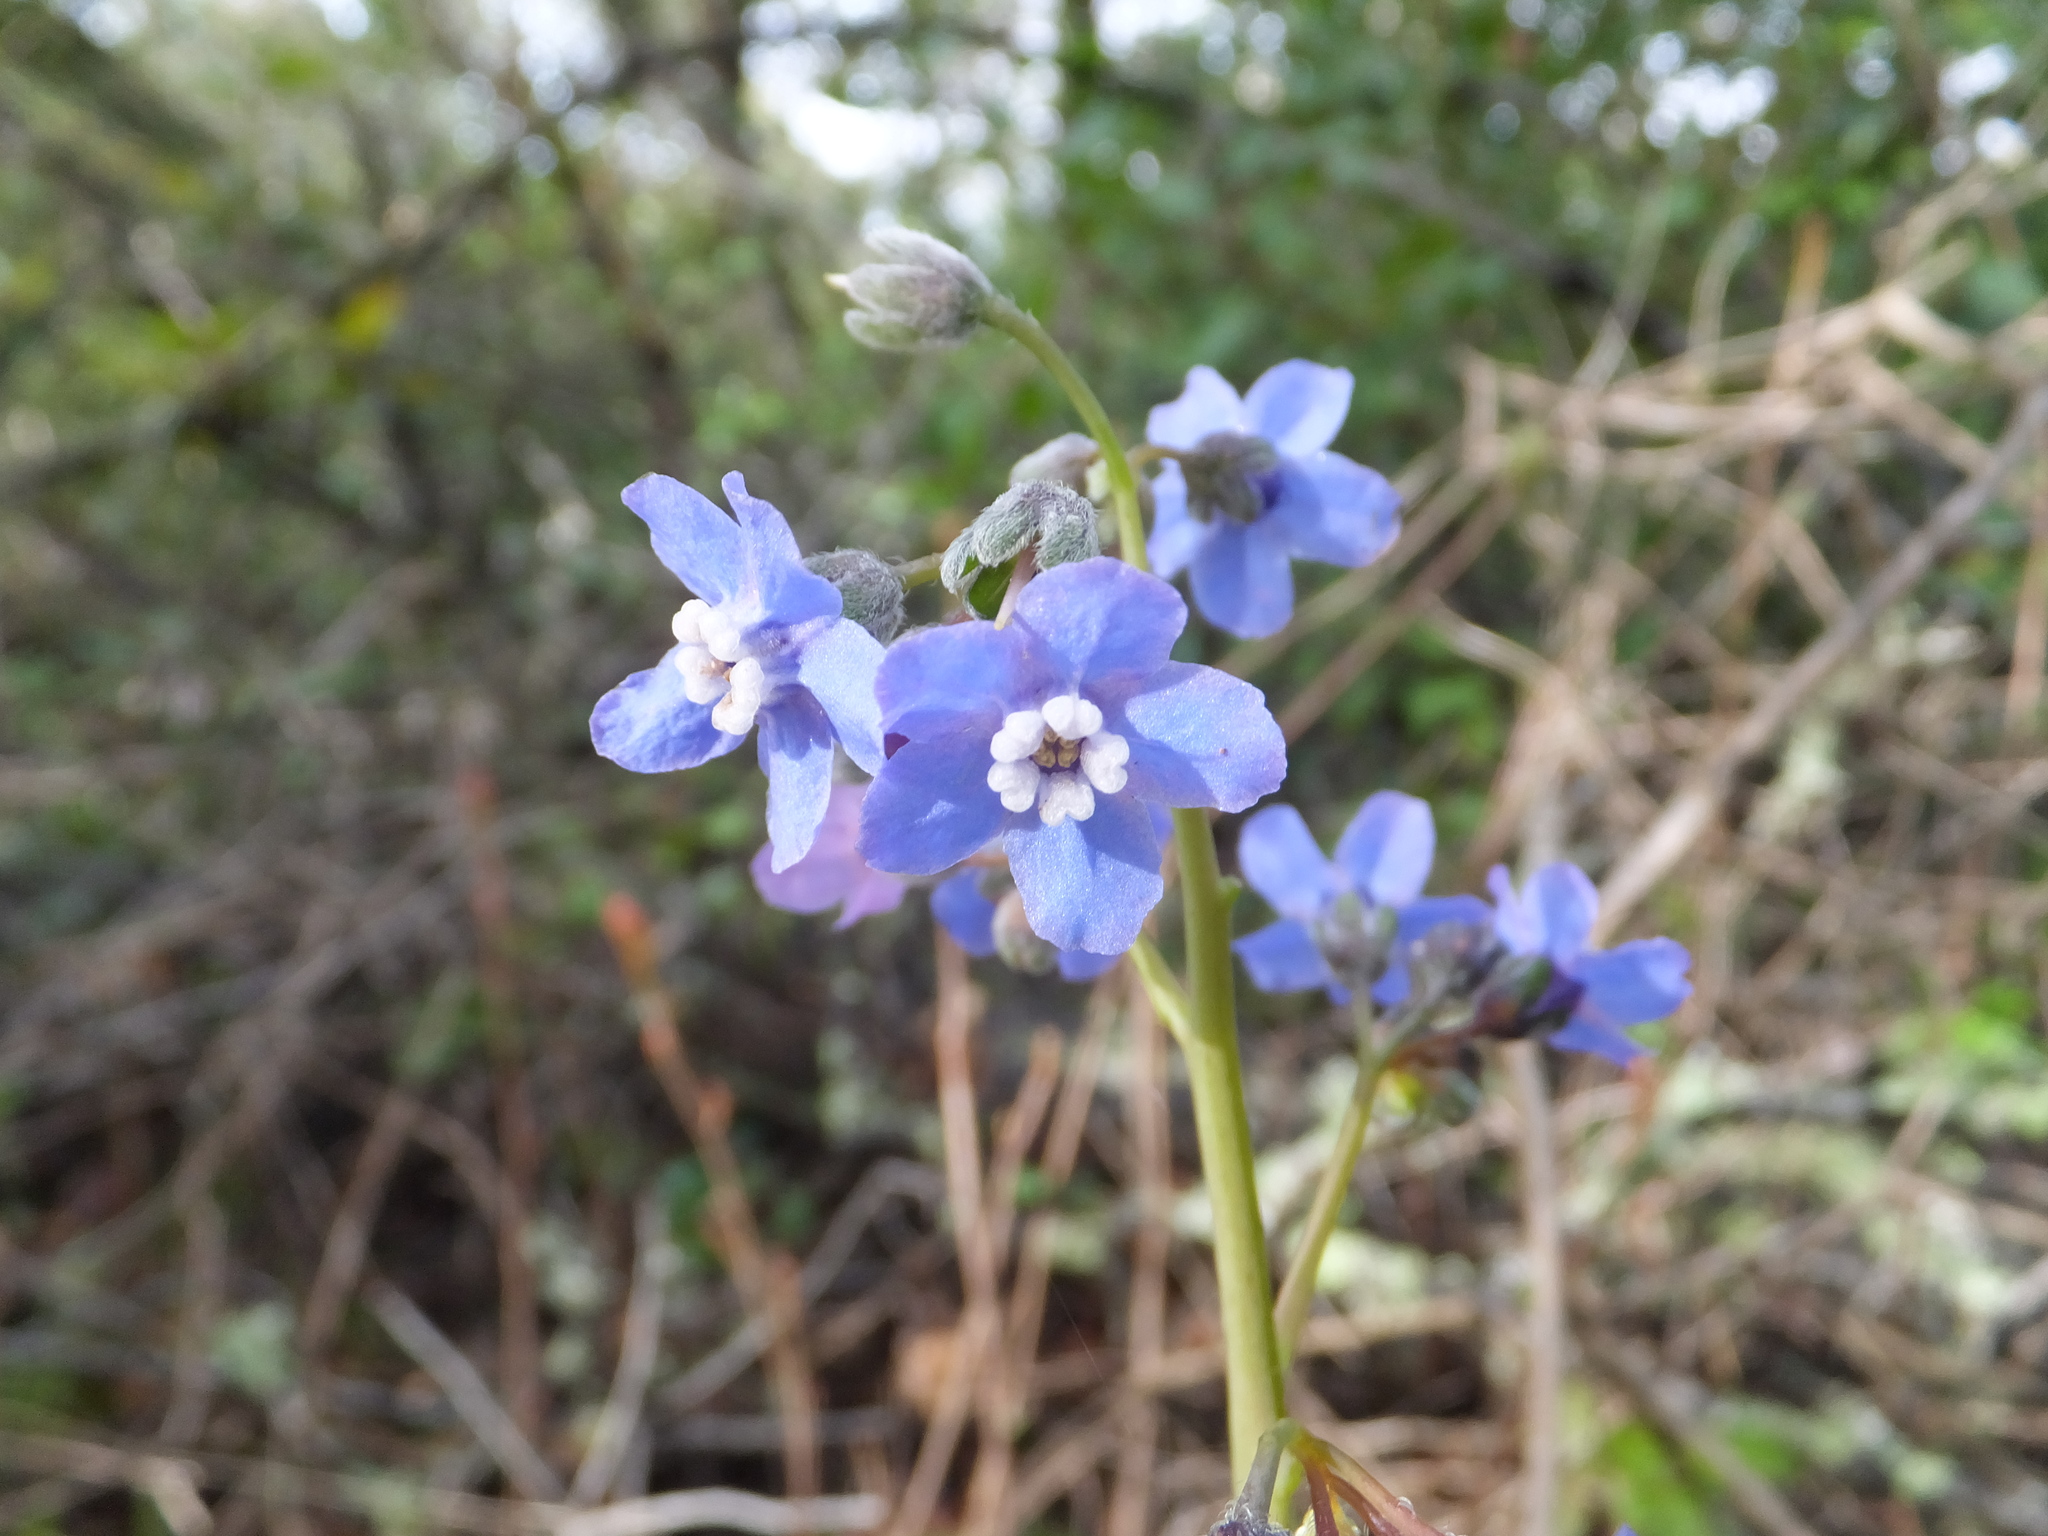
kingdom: Plantae
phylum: Tracheophyta
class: Magnoliopsida
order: Boraginales
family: Boraginaceae
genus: Adelinia
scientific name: Adelinia grande
